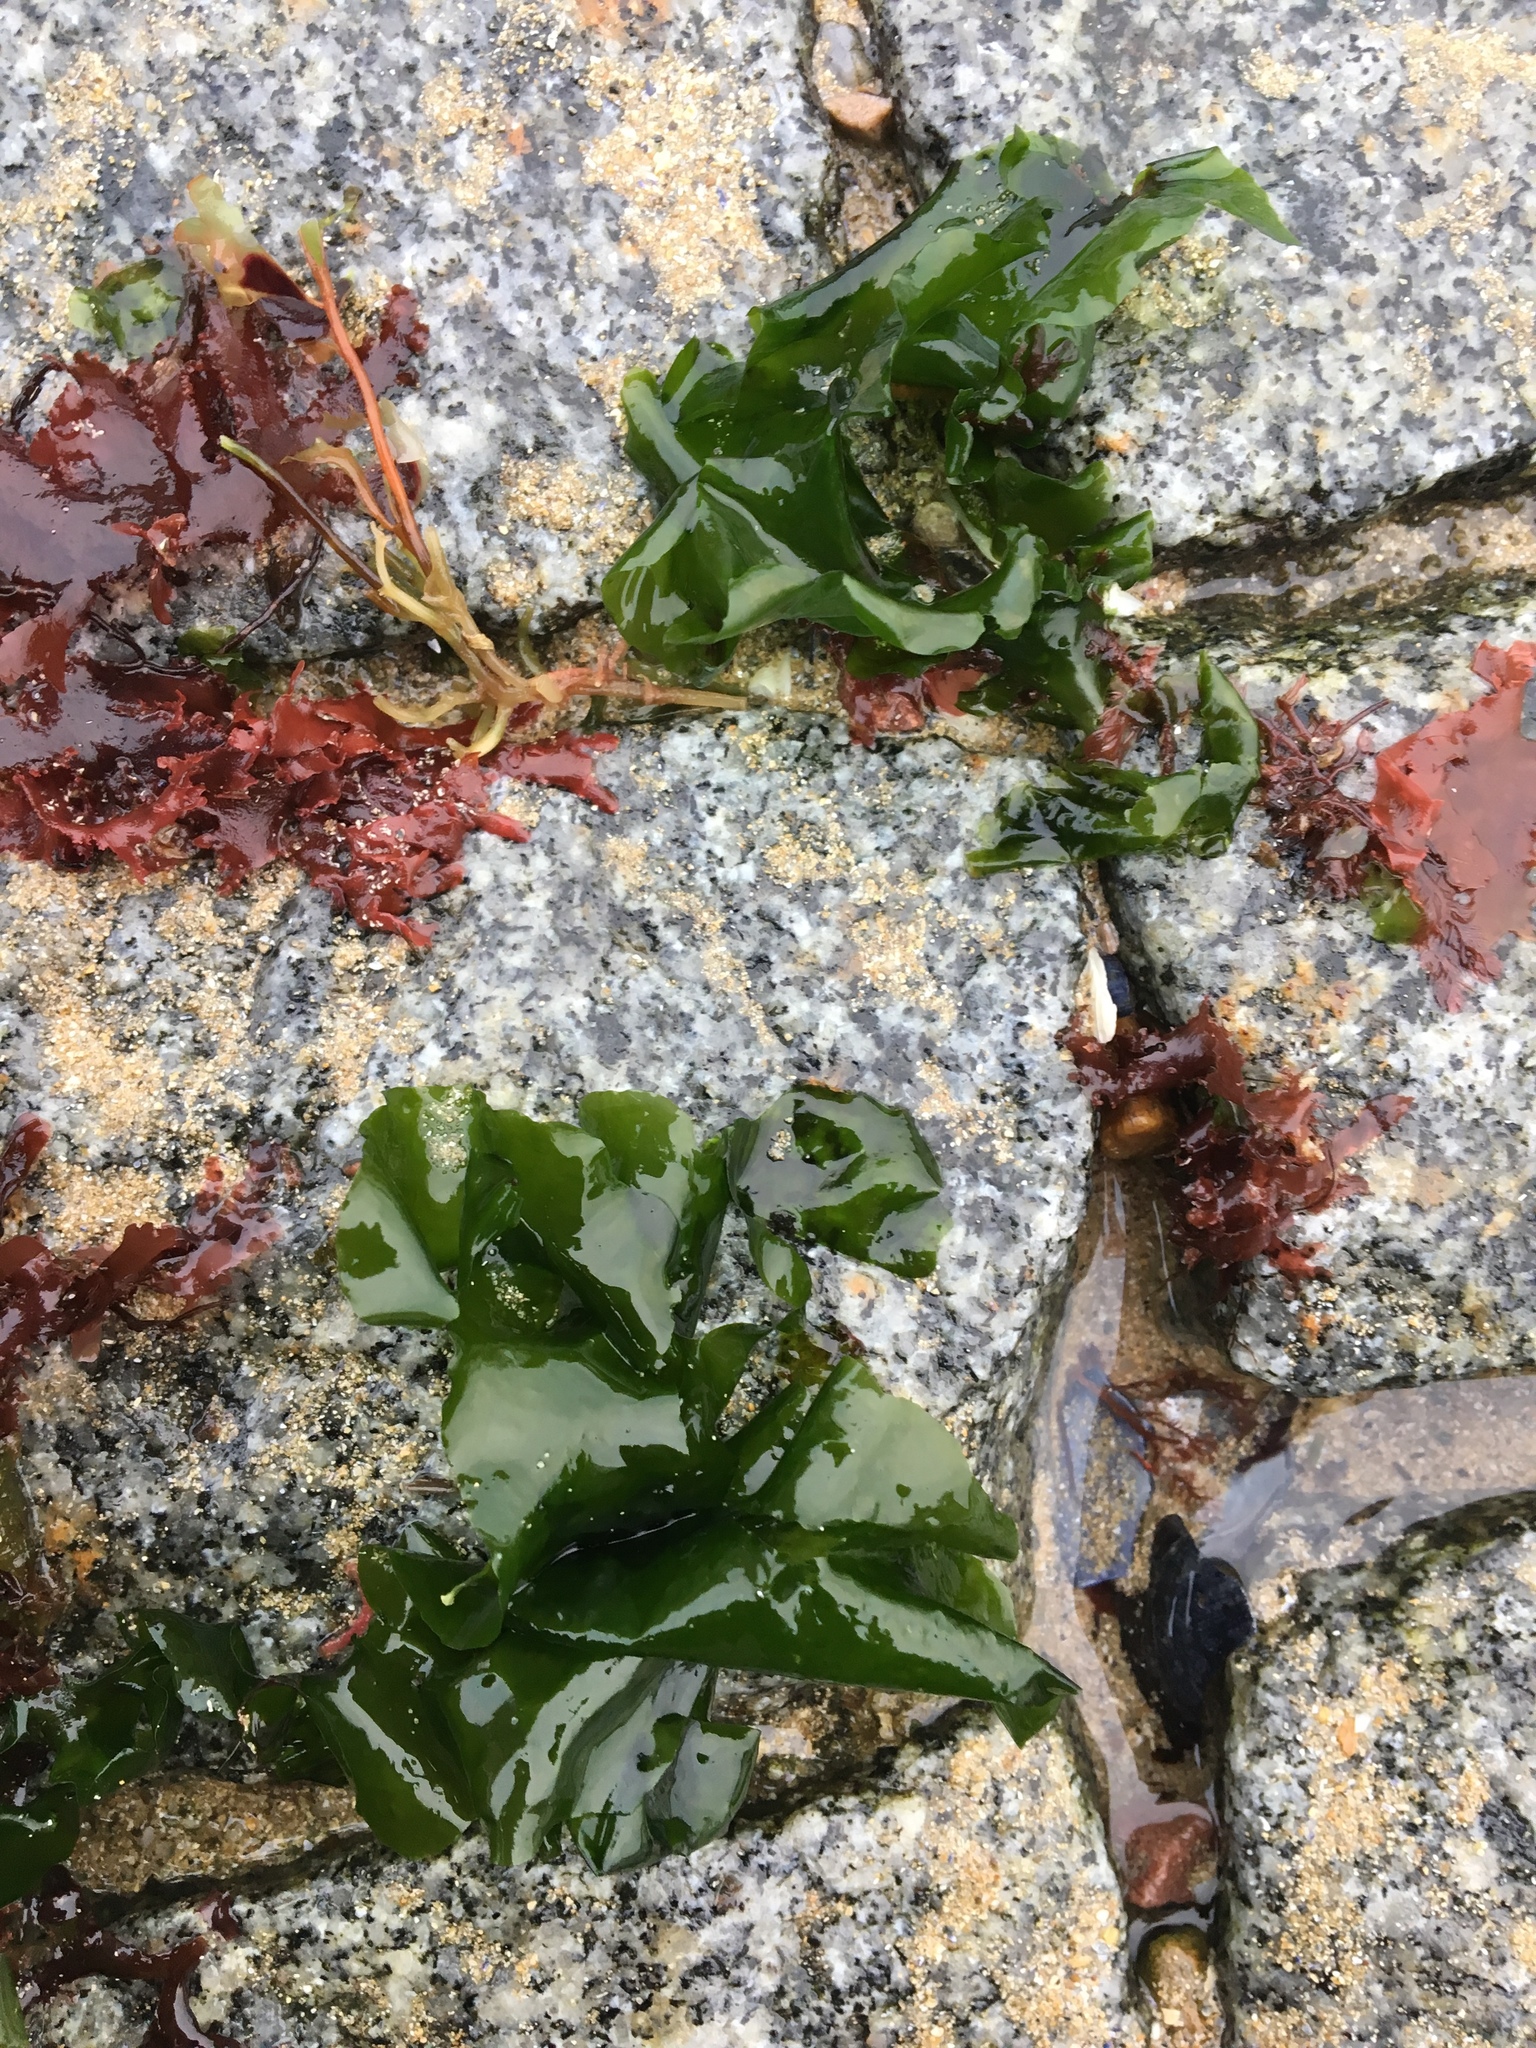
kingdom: Plantae
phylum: Chlorophyta
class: Ulvophyceae
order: Ulvales
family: Ulvaceae
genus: Ulva
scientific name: Ulva rigida
